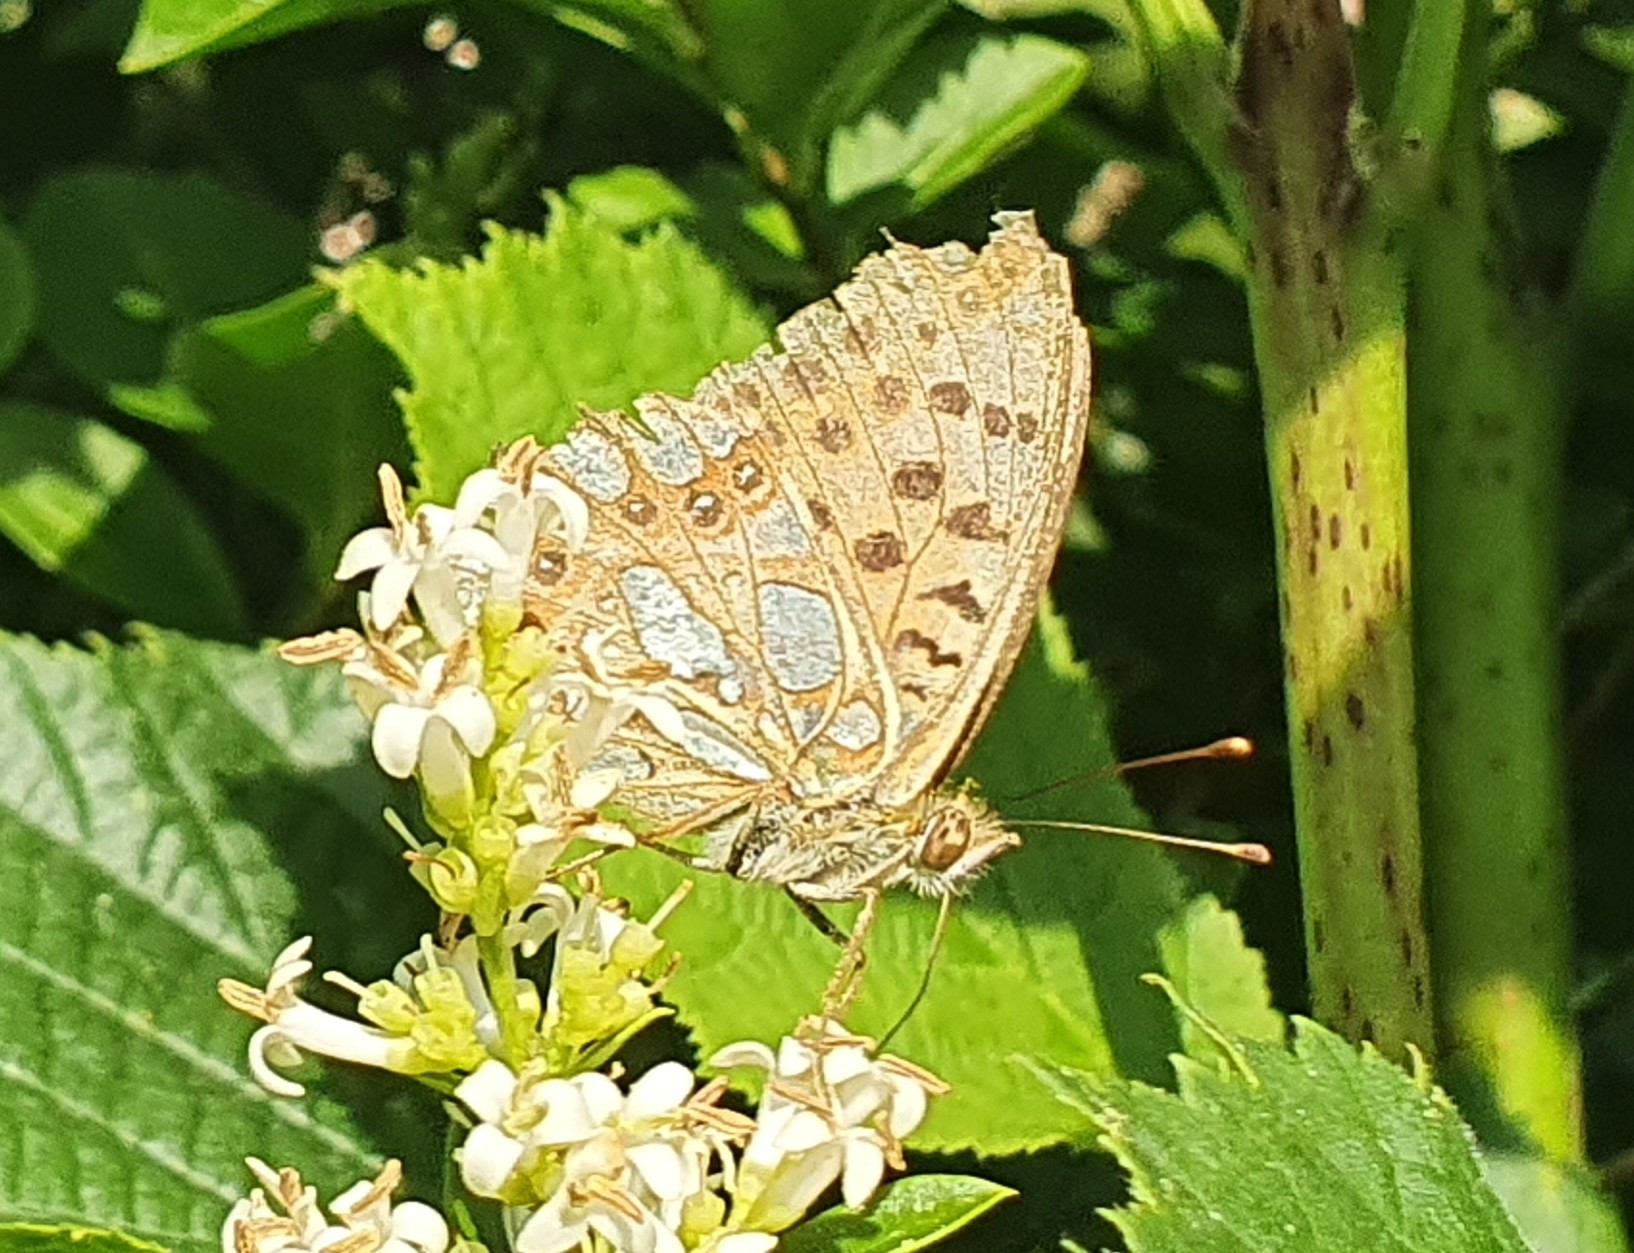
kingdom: Animalia
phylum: Arthropoda
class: Insecta
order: Lepidoptera
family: Nymphalidae
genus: Issoria
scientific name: Issoria lathonia
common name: Queen of spain fritillary
